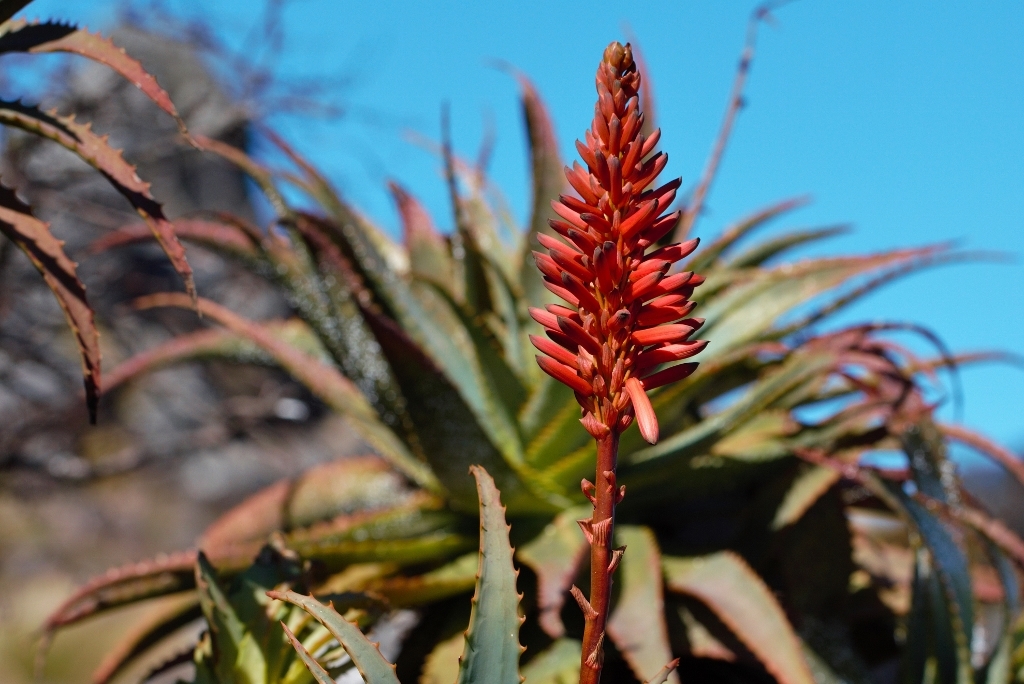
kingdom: Plantae
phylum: Tracheophyta
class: Liliopsida
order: Asparagales
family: Asphodelaceae
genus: Aloe
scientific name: Aloe arborescens
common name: Candelabra aloe
